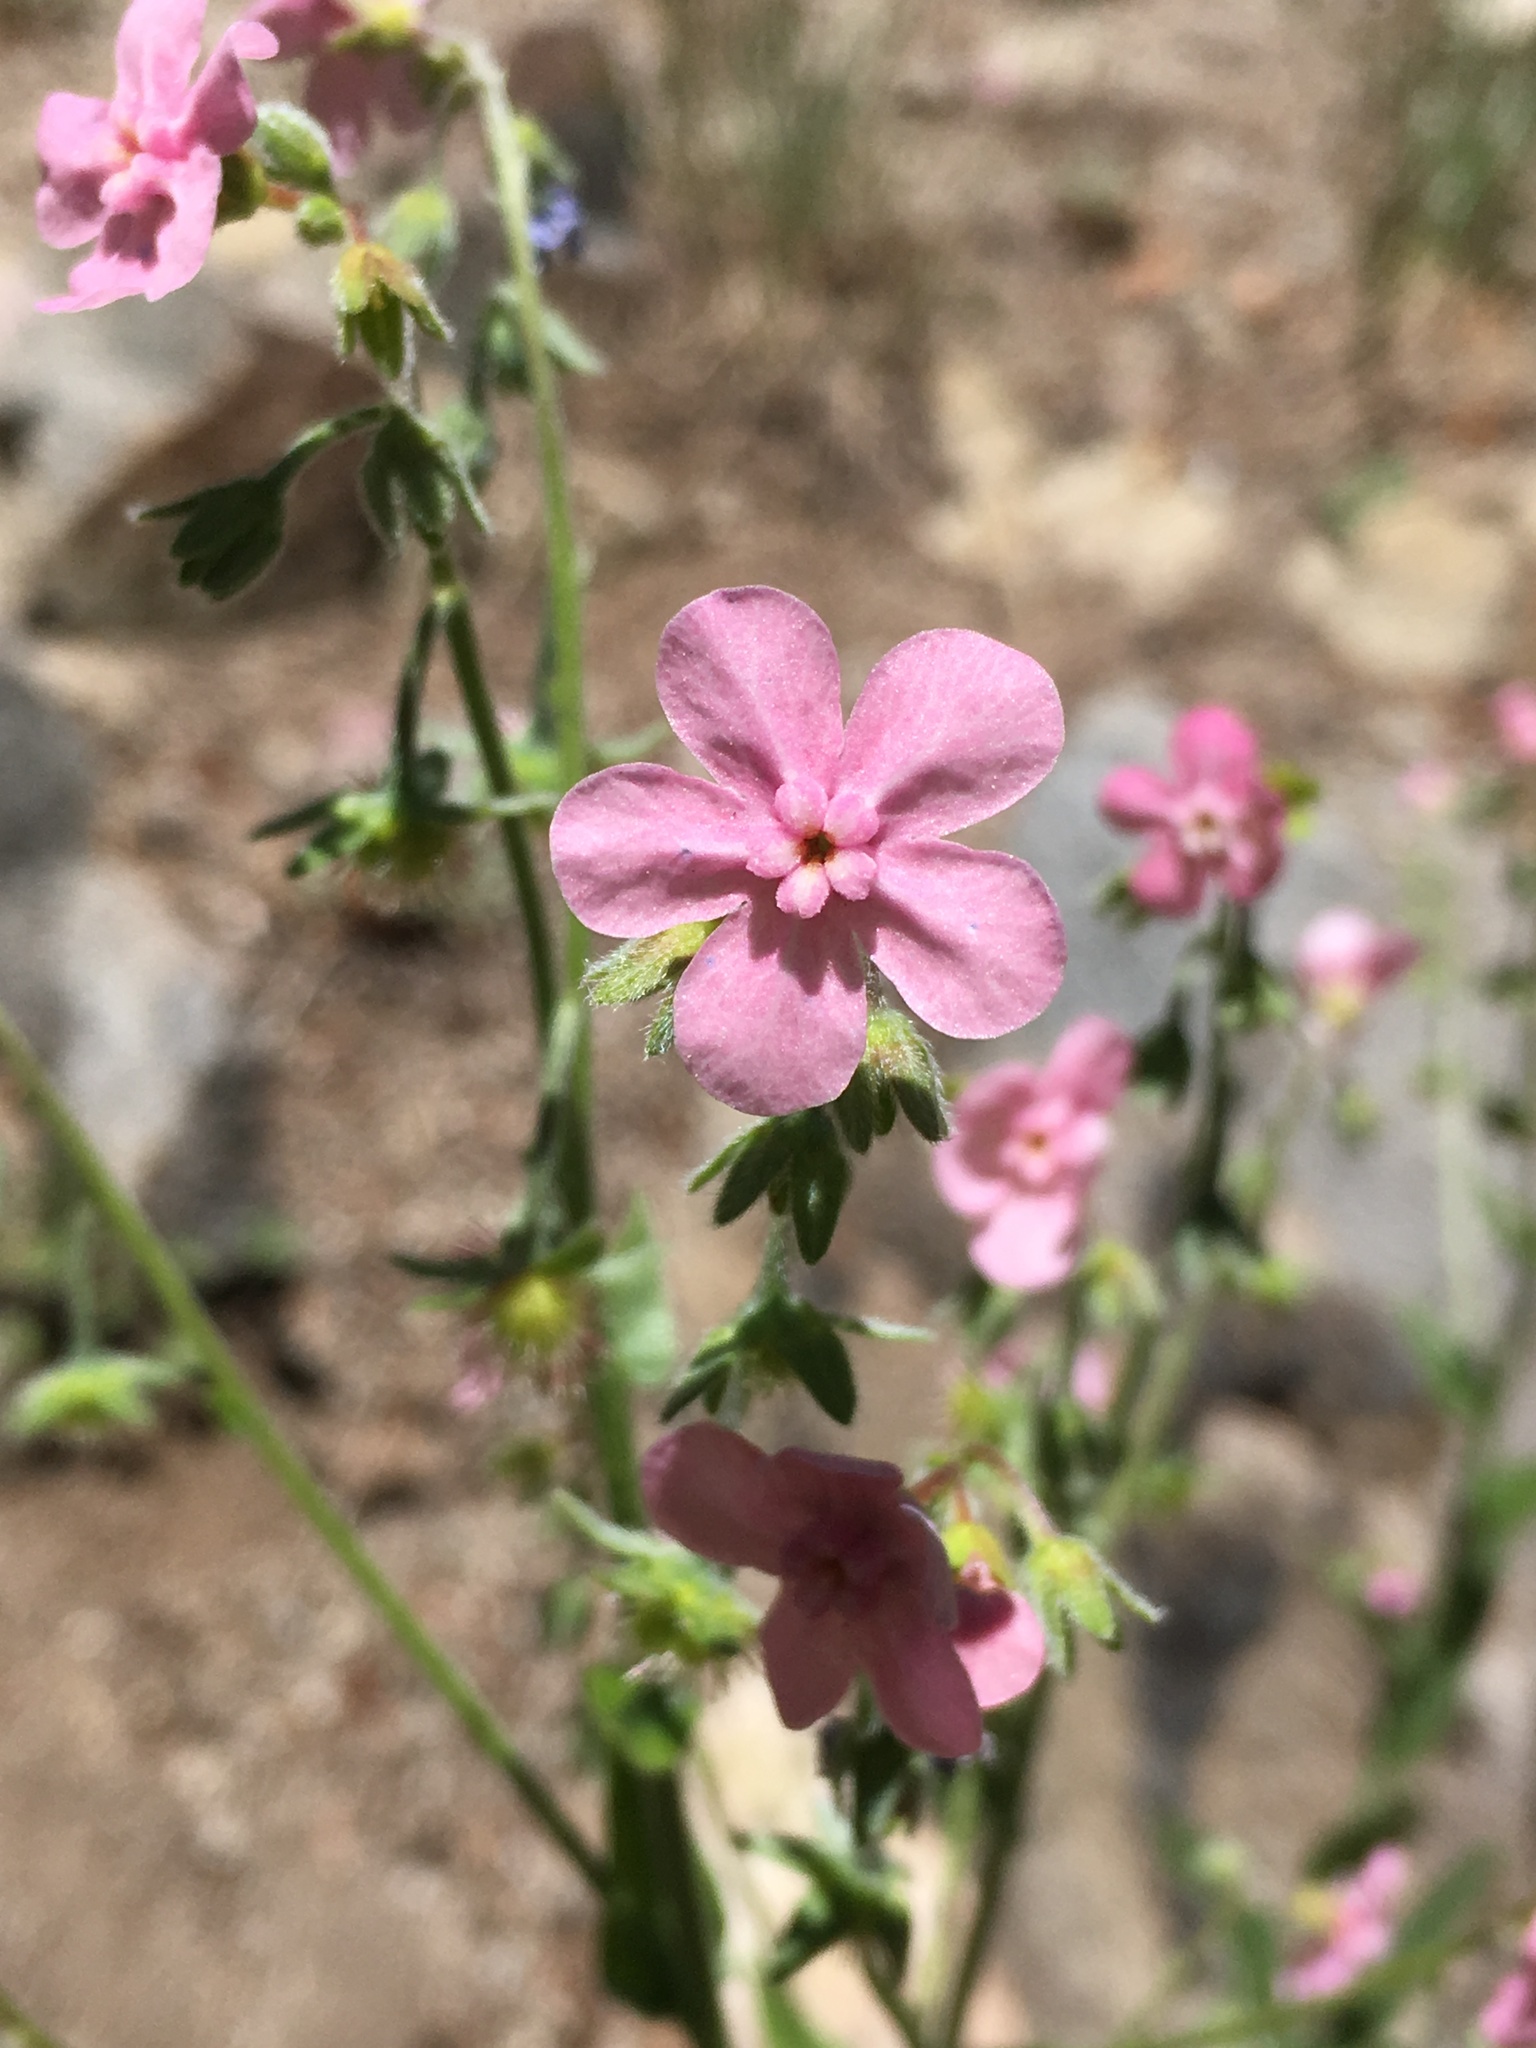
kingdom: Plantae
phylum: Tracheophyta
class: Magnoliopsida
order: Boraginales
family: Boraginaceae
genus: Hackelia
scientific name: Hackelia mundula
